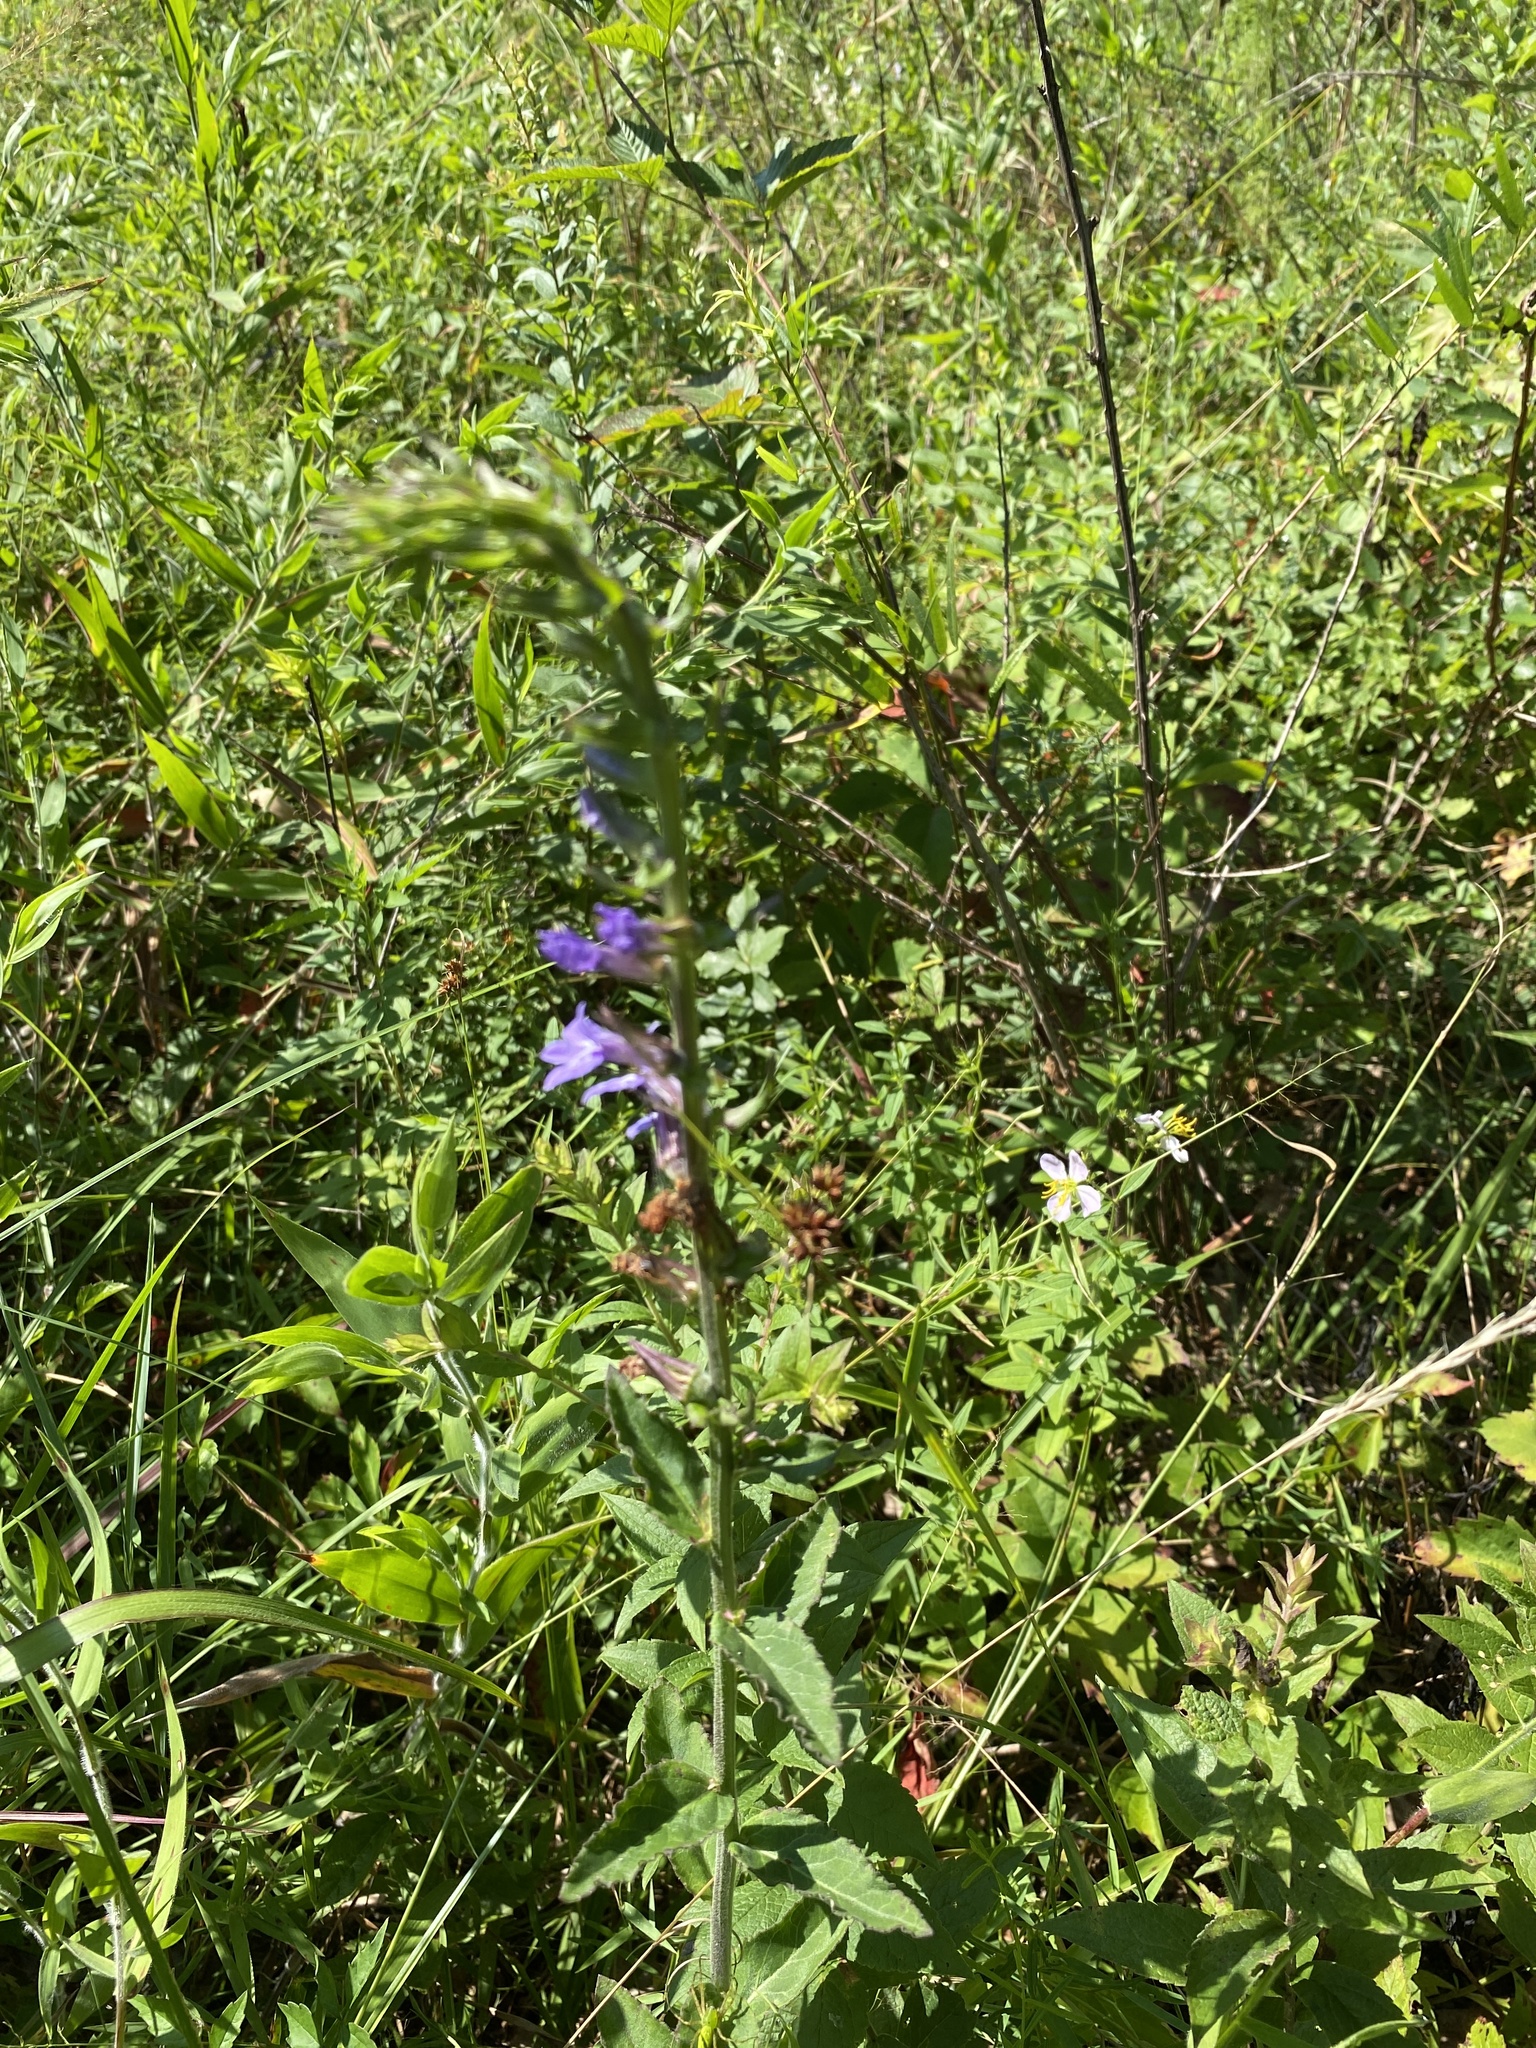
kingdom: Plantae
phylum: Tracheophyta
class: Magnoliopsida
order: Asterales
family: Campanulaceae
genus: Lobelia
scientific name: Lobelia puberula
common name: Purple dewdrop
